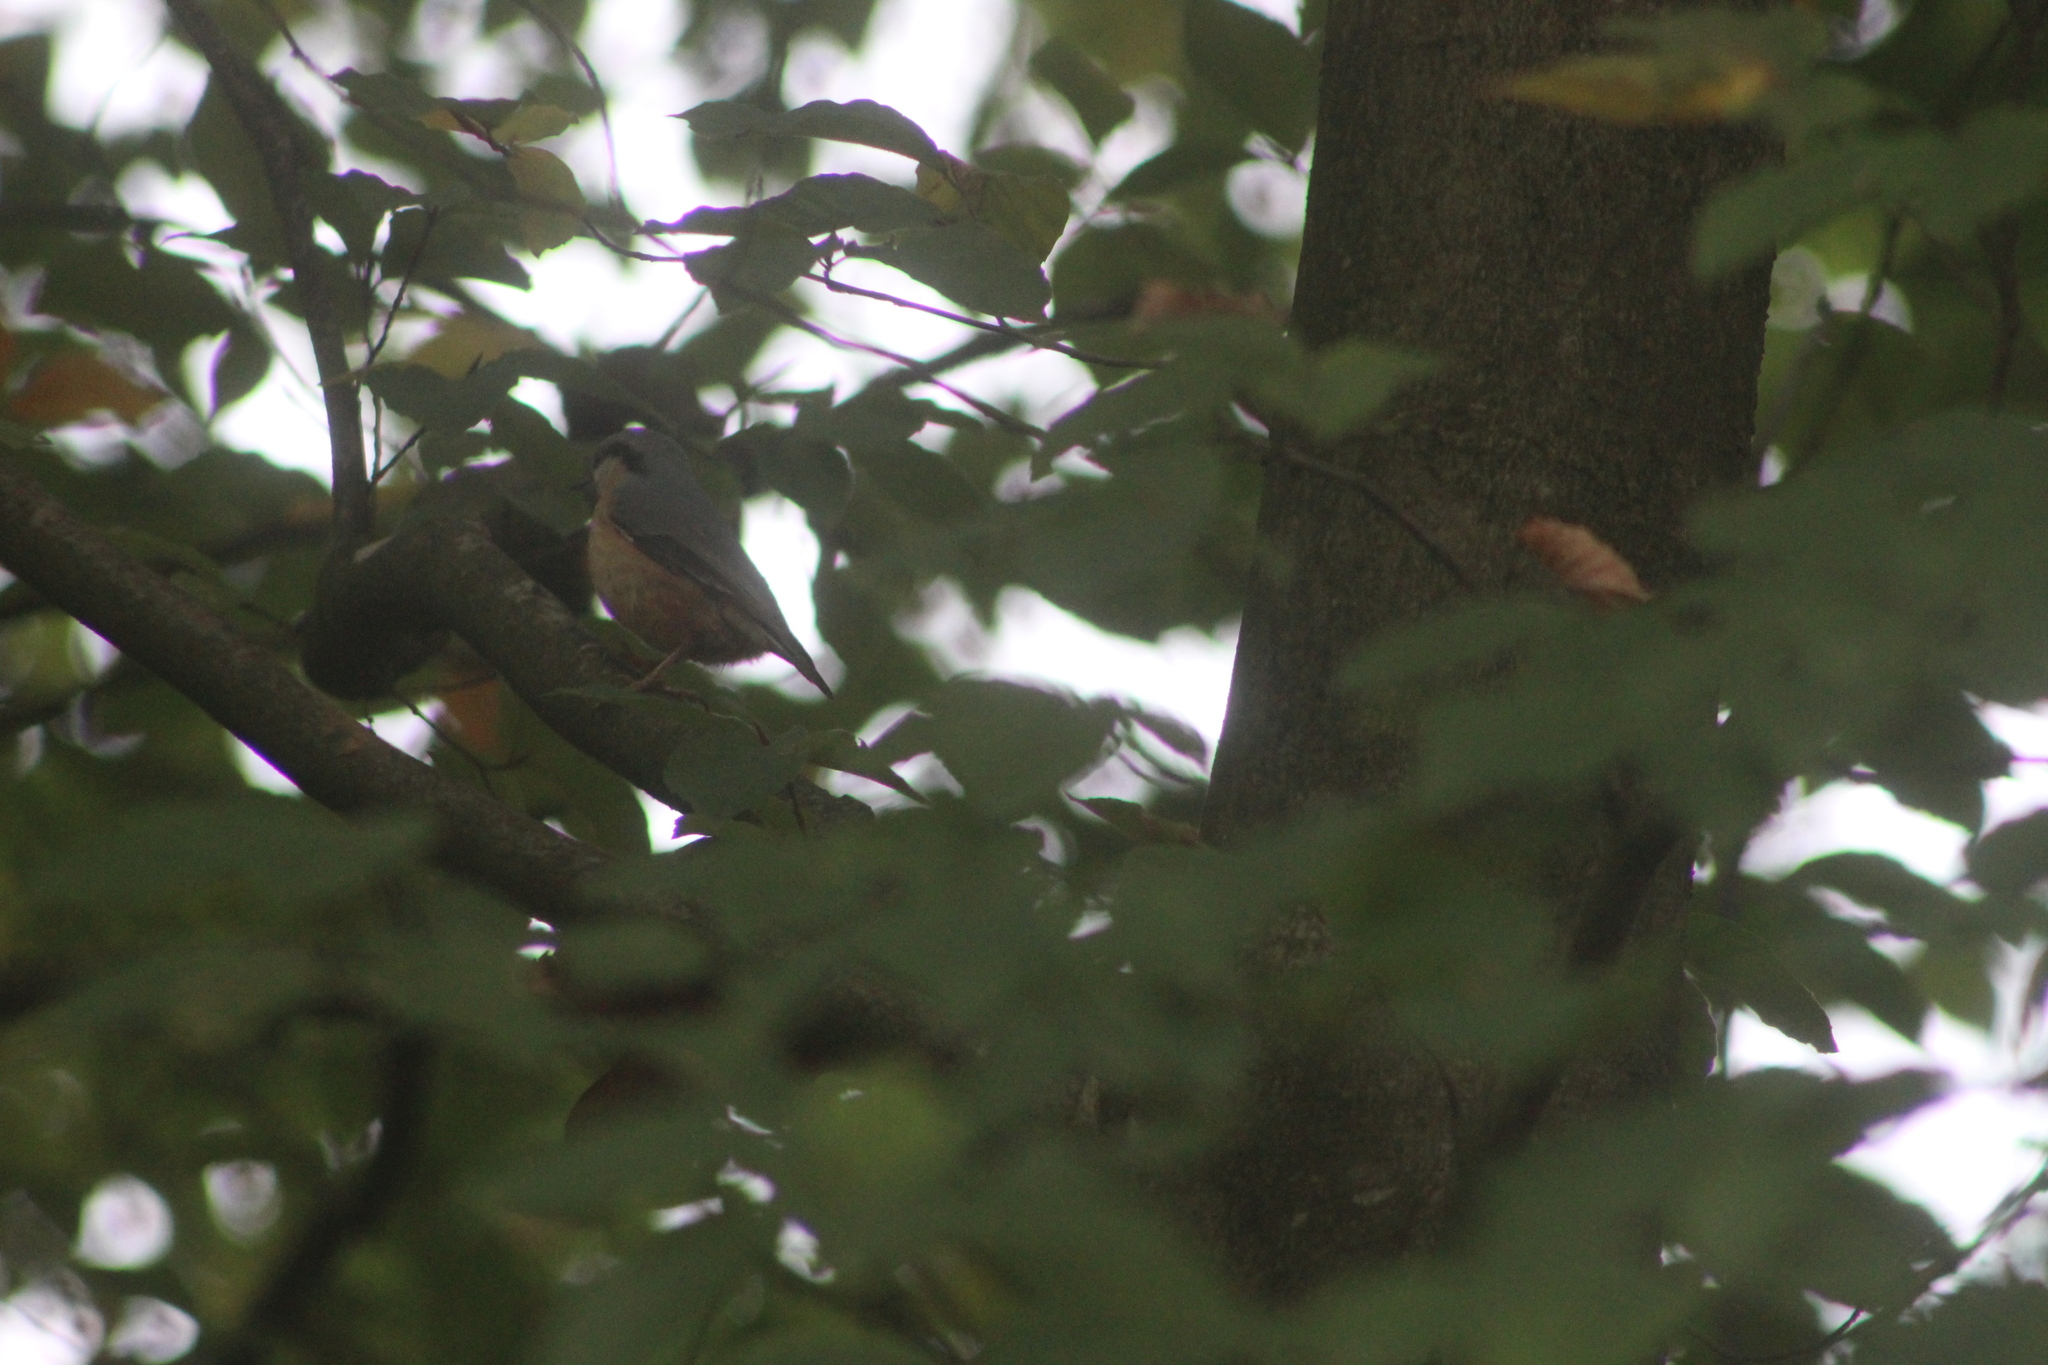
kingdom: Animalia
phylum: Chordata
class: Aves
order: Passeriformes
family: Sittidae
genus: Sitta
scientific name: Sitta europaea
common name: Eurasian nuthatch
